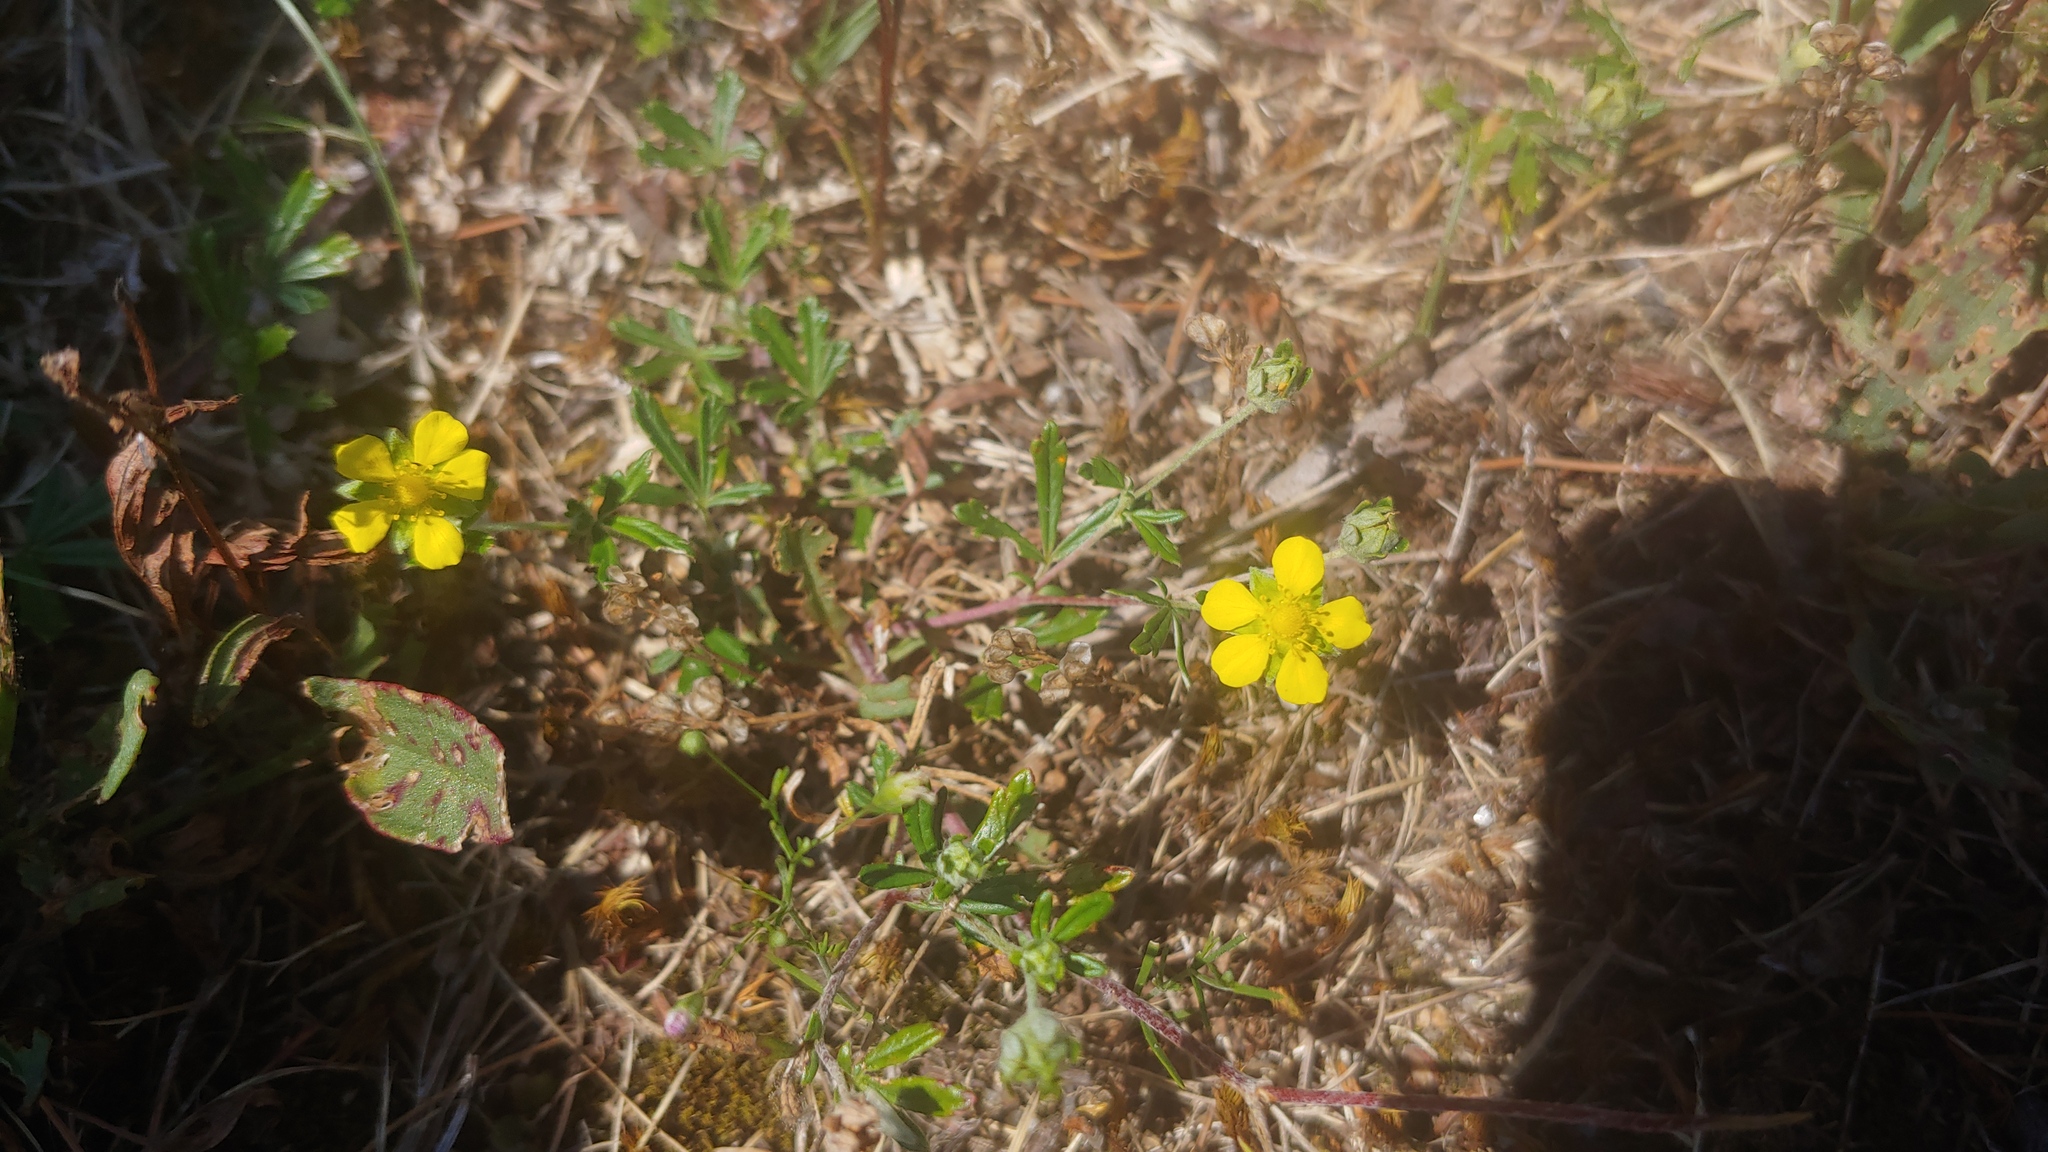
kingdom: Plantae
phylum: Tracheophyta
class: Magnoliopsida
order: Rosales
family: Rosaceae
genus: Potentilla
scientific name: Potentilla argentea
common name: Hoary cinquefoil
